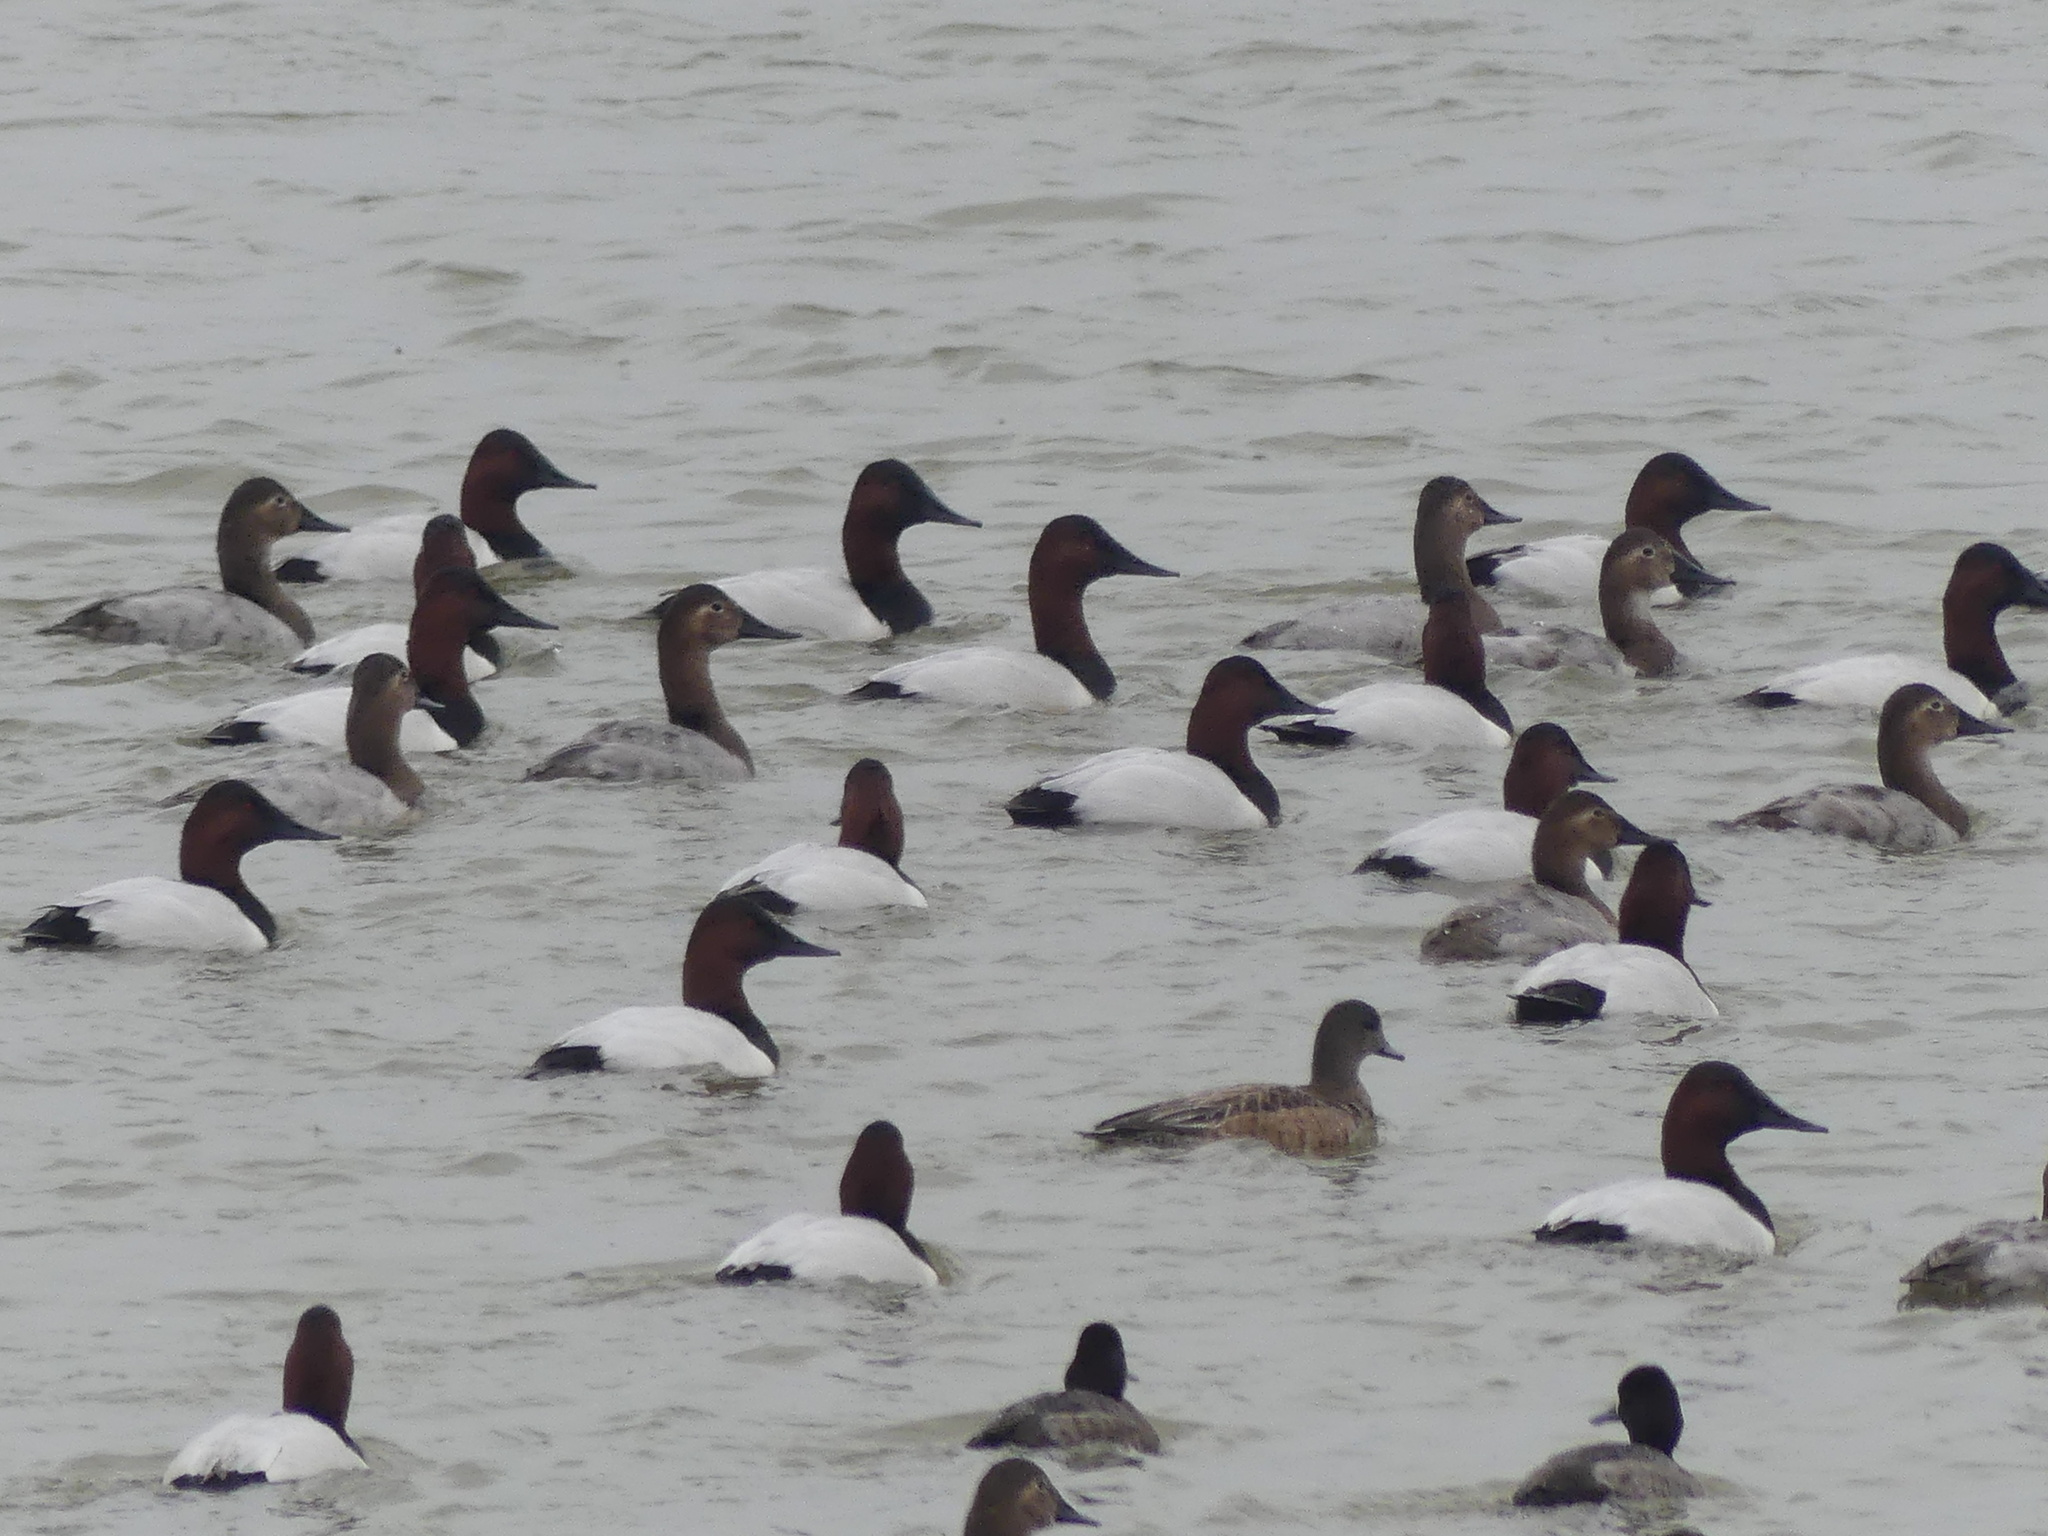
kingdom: Animalia
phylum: Chordata
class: Aves
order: Anseriformes
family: Anatidae
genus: Aythya
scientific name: Aythya valisineria
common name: Canvasback
